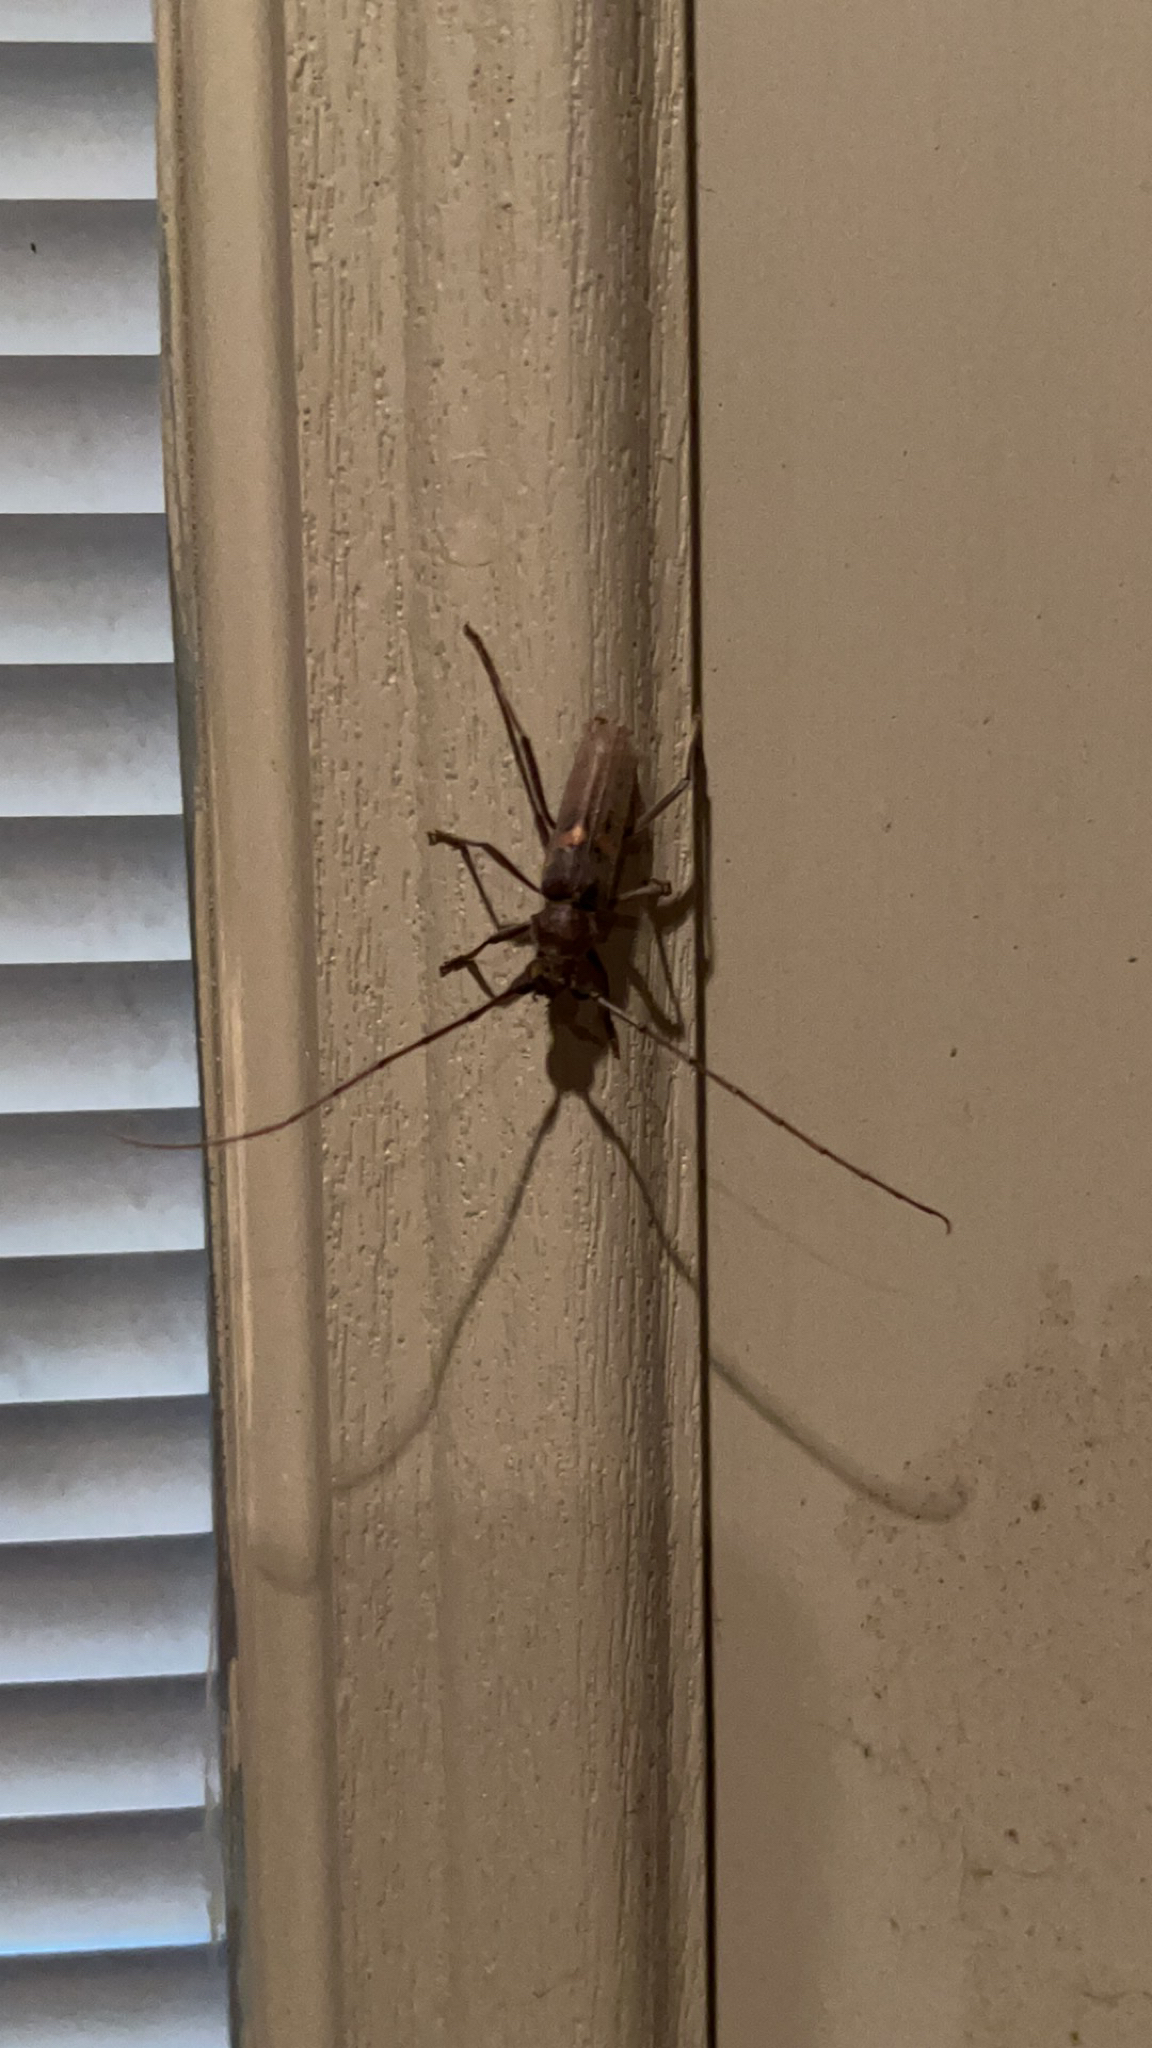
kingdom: Animalia
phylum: Arthropoda
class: Insecta
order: Coleoptera
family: Cerambycidae
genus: Knulliana
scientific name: Knulliana cincta
